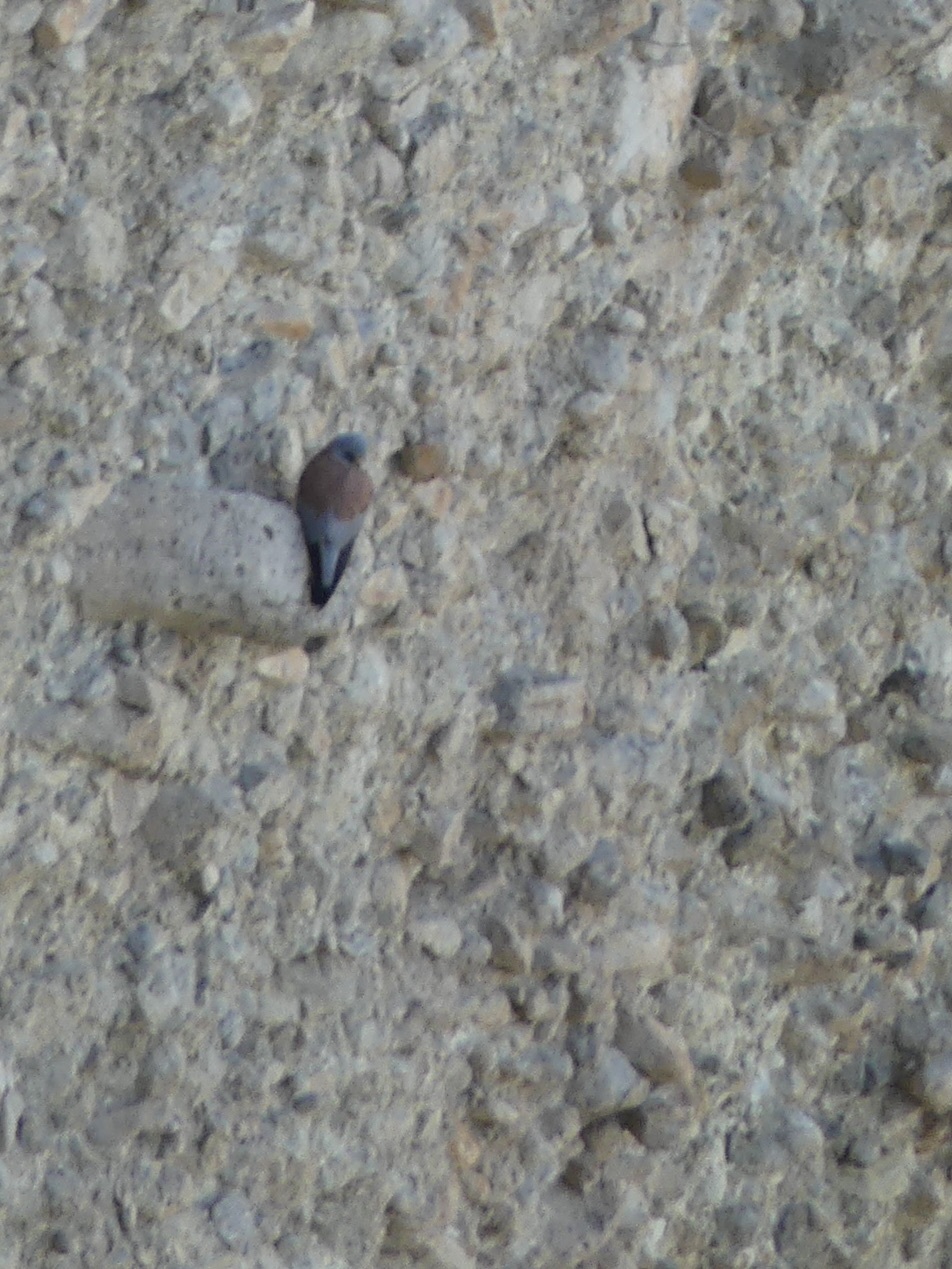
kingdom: Animalia
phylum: Chordata
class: Aves
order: Falconiformes
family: Falconidae
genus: Falco
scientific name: Falco naumanni
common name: Lesser kestrel
